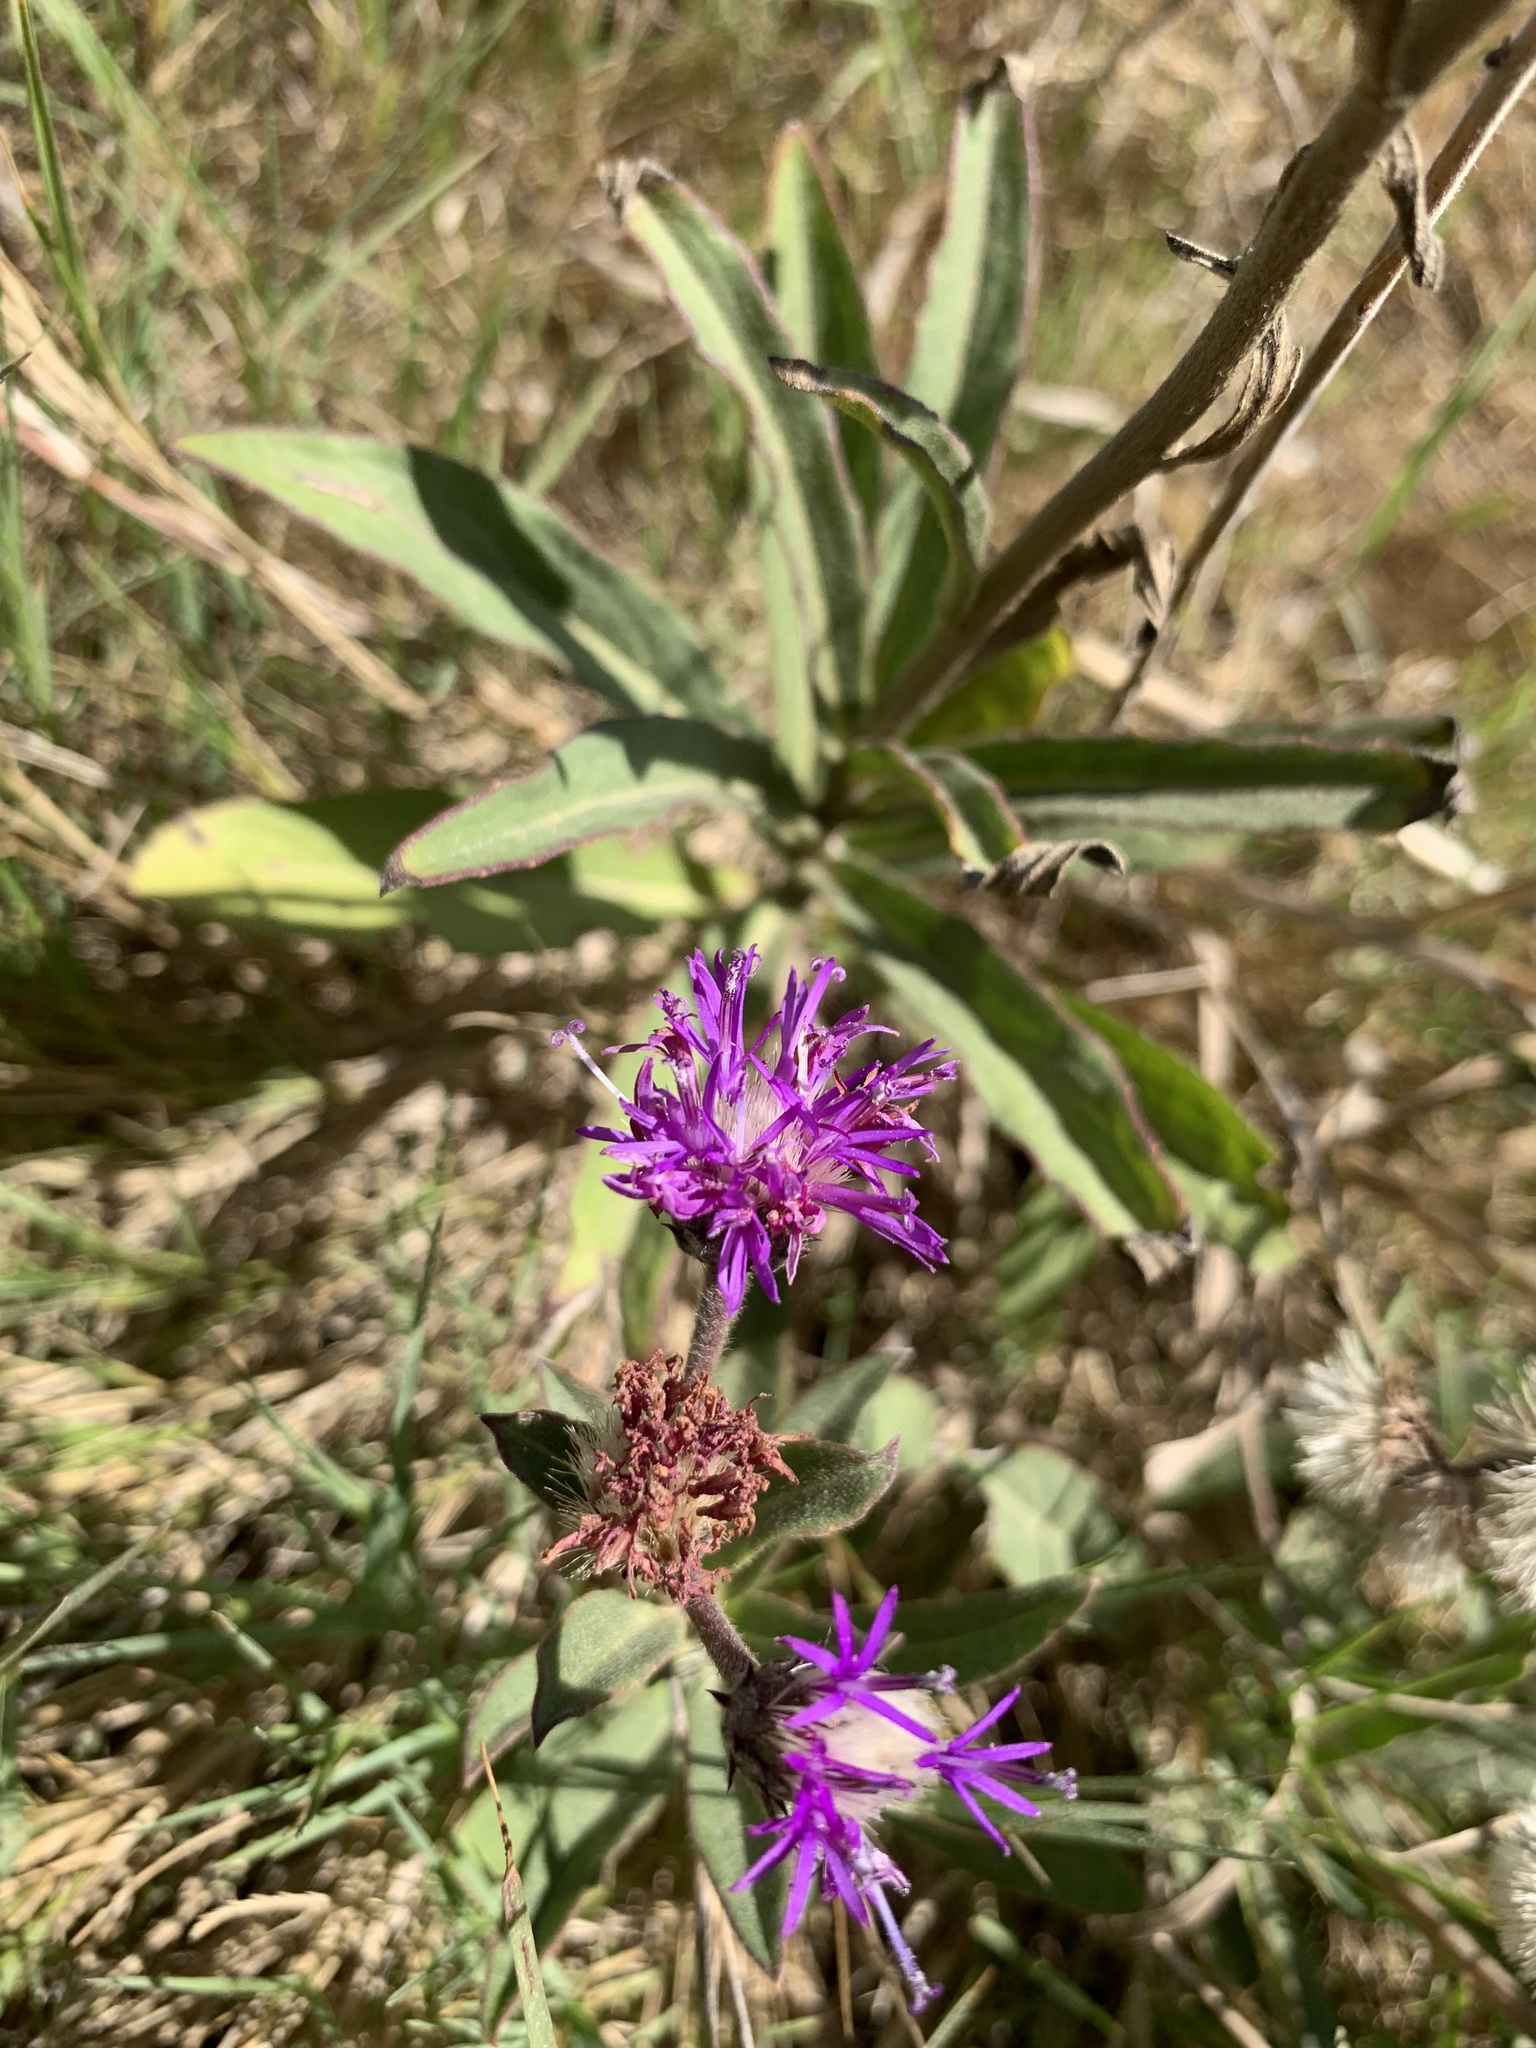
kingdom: Plantae
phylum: Tracheophyta
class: Magnoliopsida
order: Asterales
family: Asteraceae
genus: Chrysolaena
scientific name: Chrysolaena flexuosa
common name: Zig-zag vernonia
